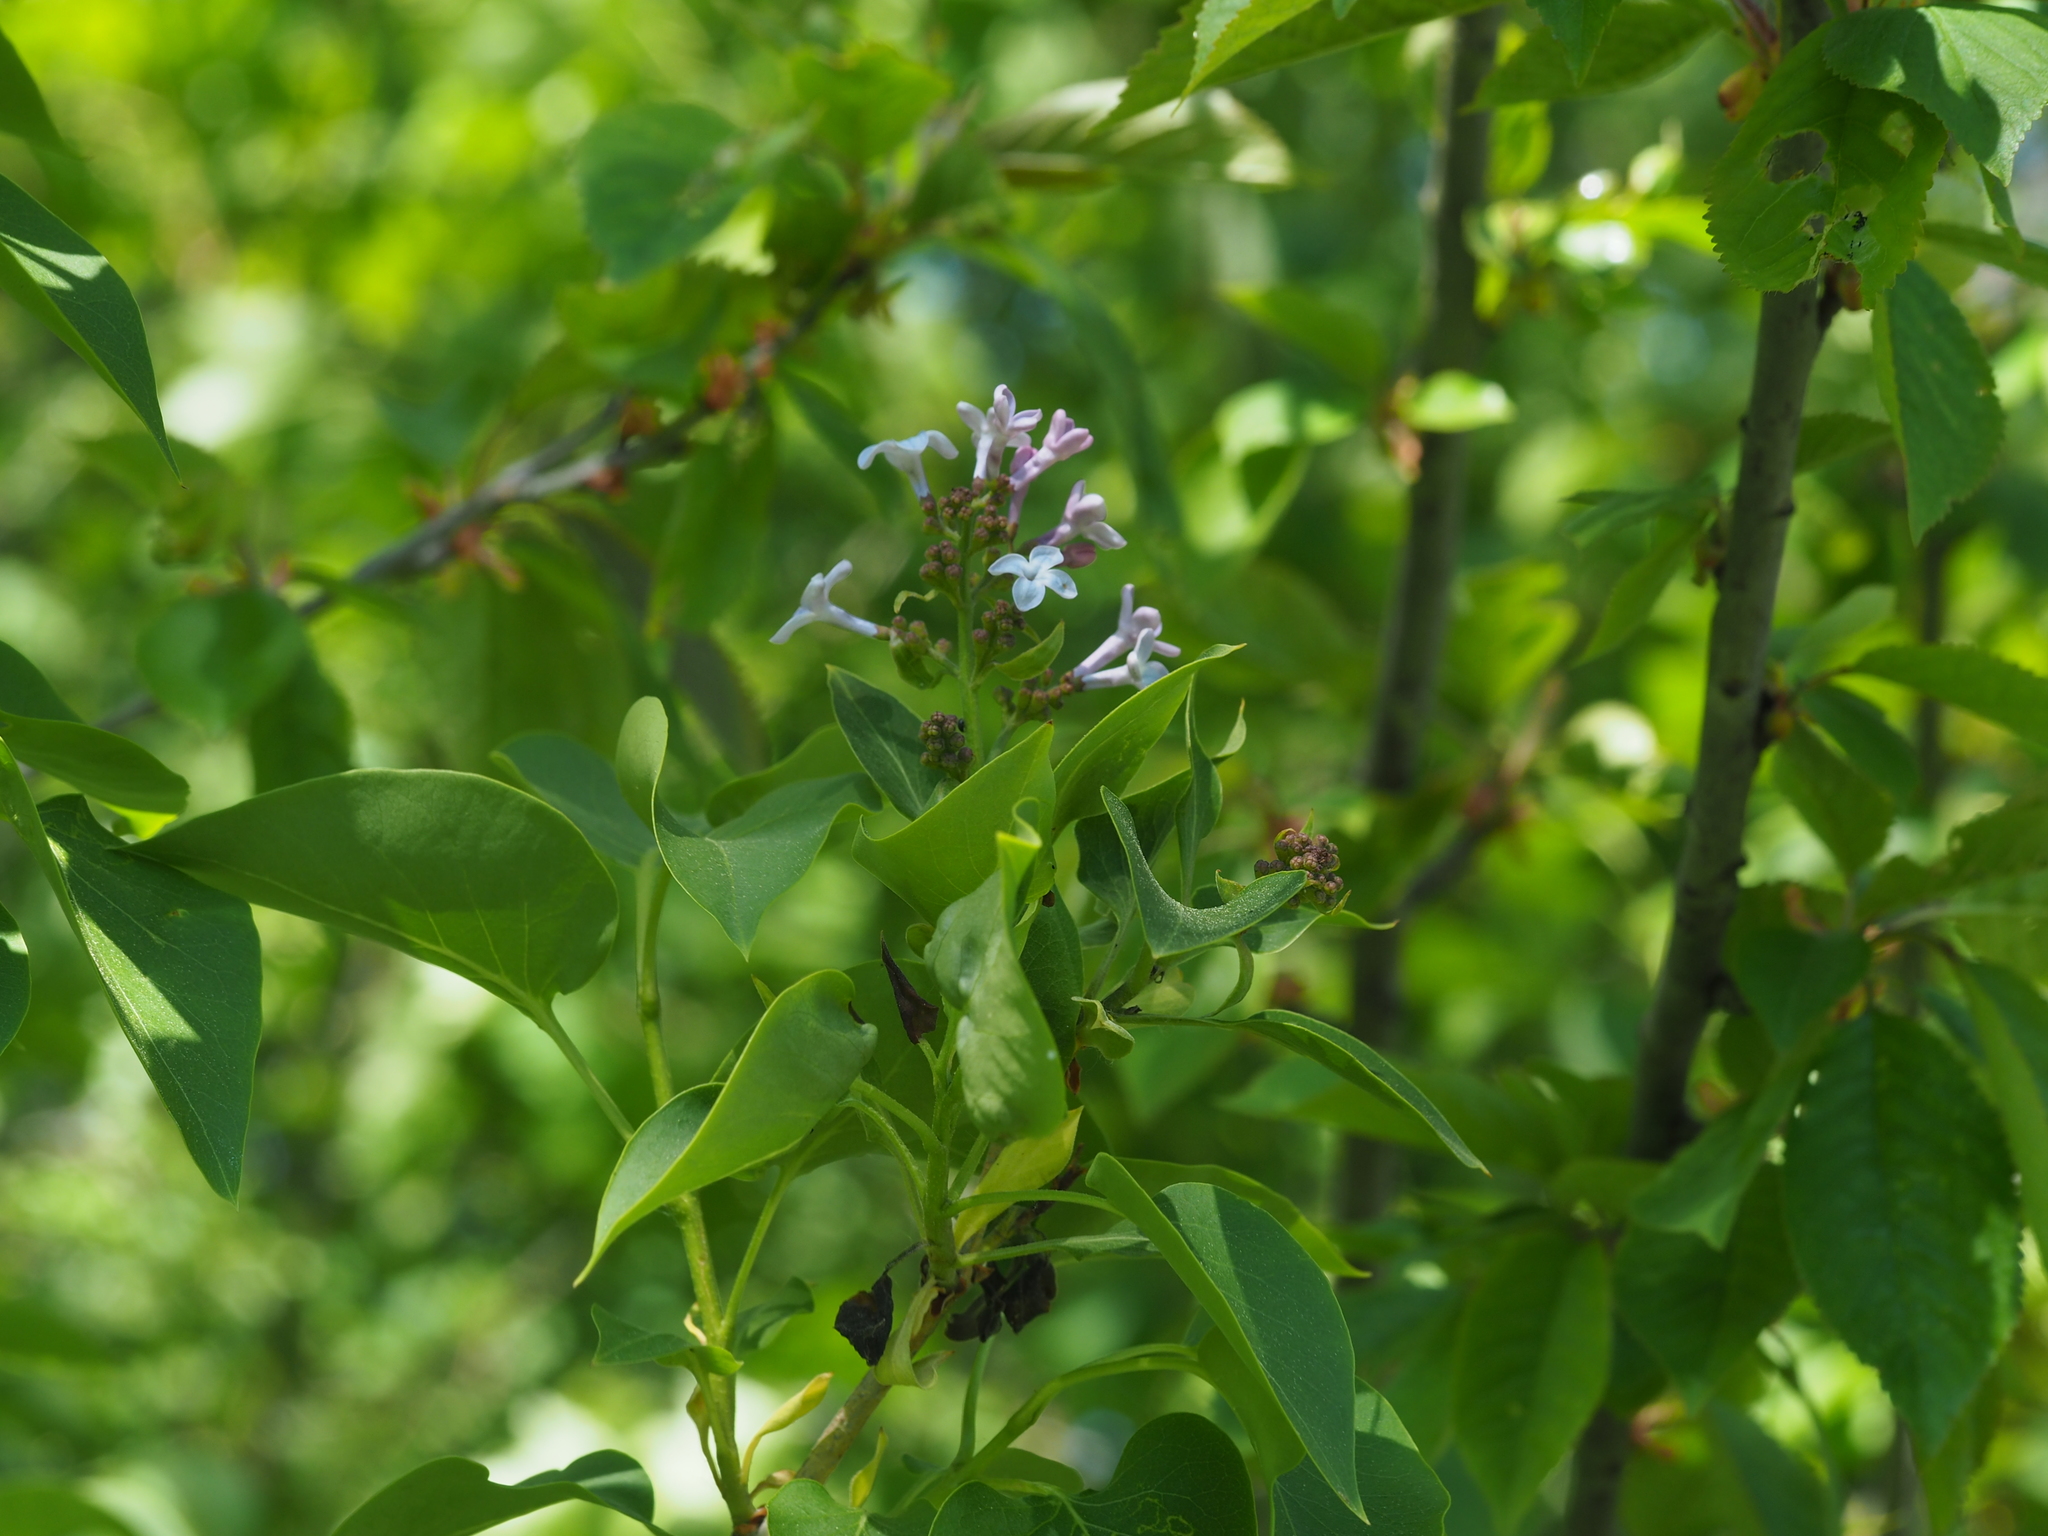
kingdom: Plantae
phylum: Tracheophyta
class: Magnoliopsida
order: Lamiales
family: Oleaceae
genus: Syringa
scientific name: Syringa vulgaris
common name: Common lilac
